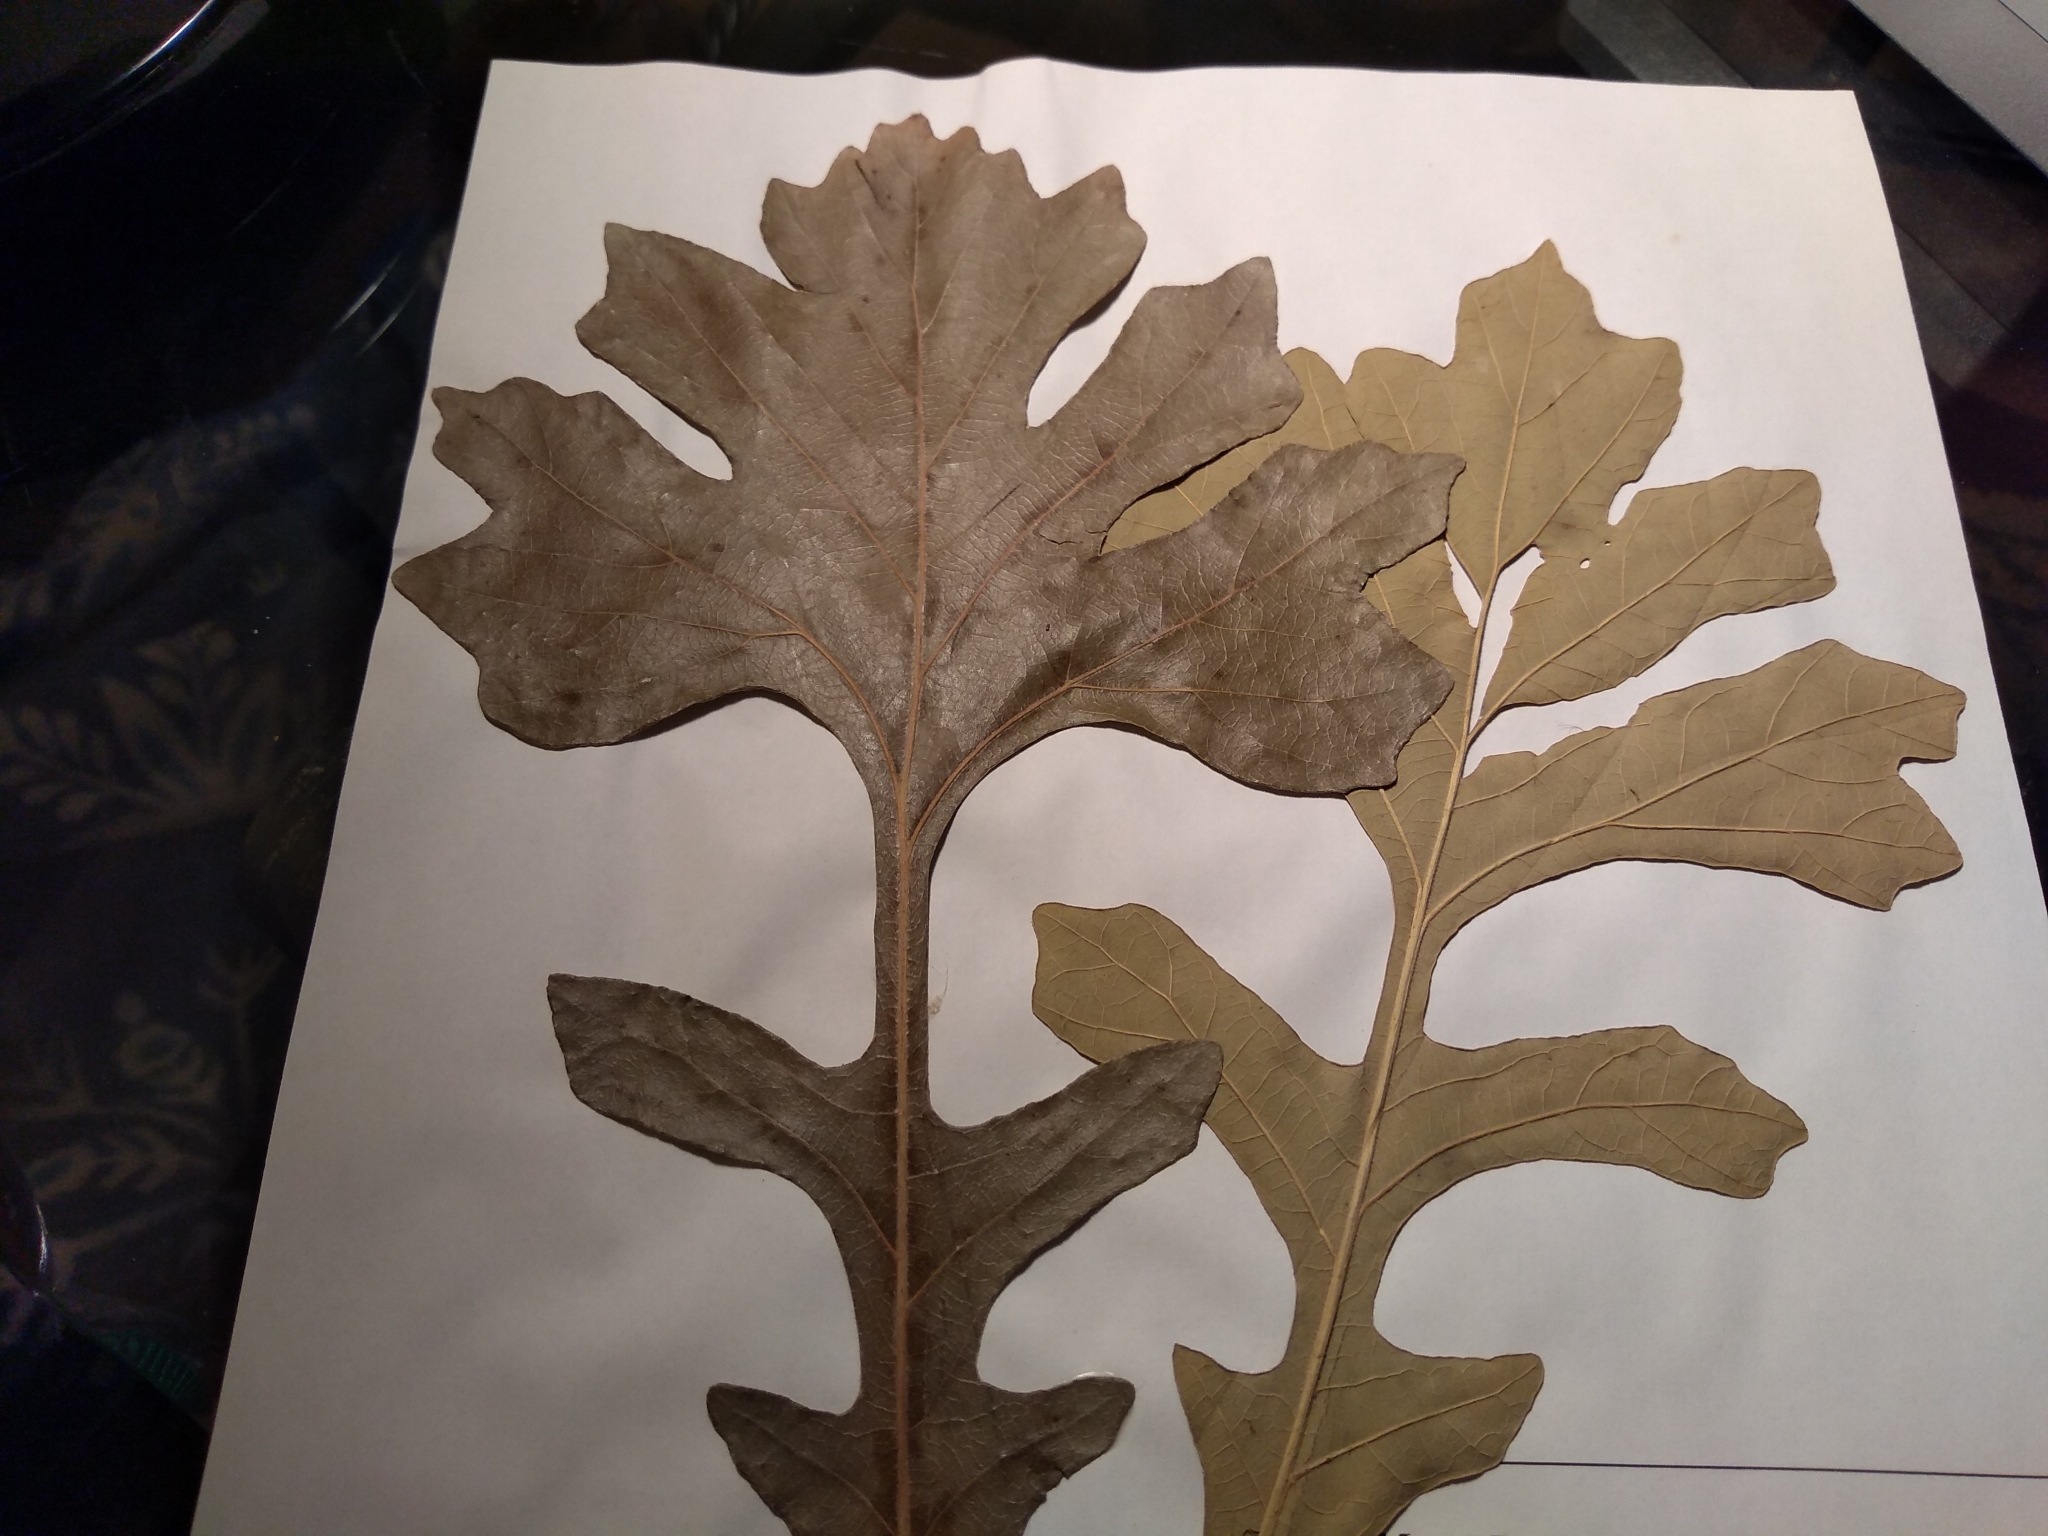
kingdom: Plantae
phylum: Tracheophyta
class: Magnoliopsida
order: Fagales
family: Fagaceae
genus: Quercus
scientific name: Quercus macrocarpa
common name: Bur oak
